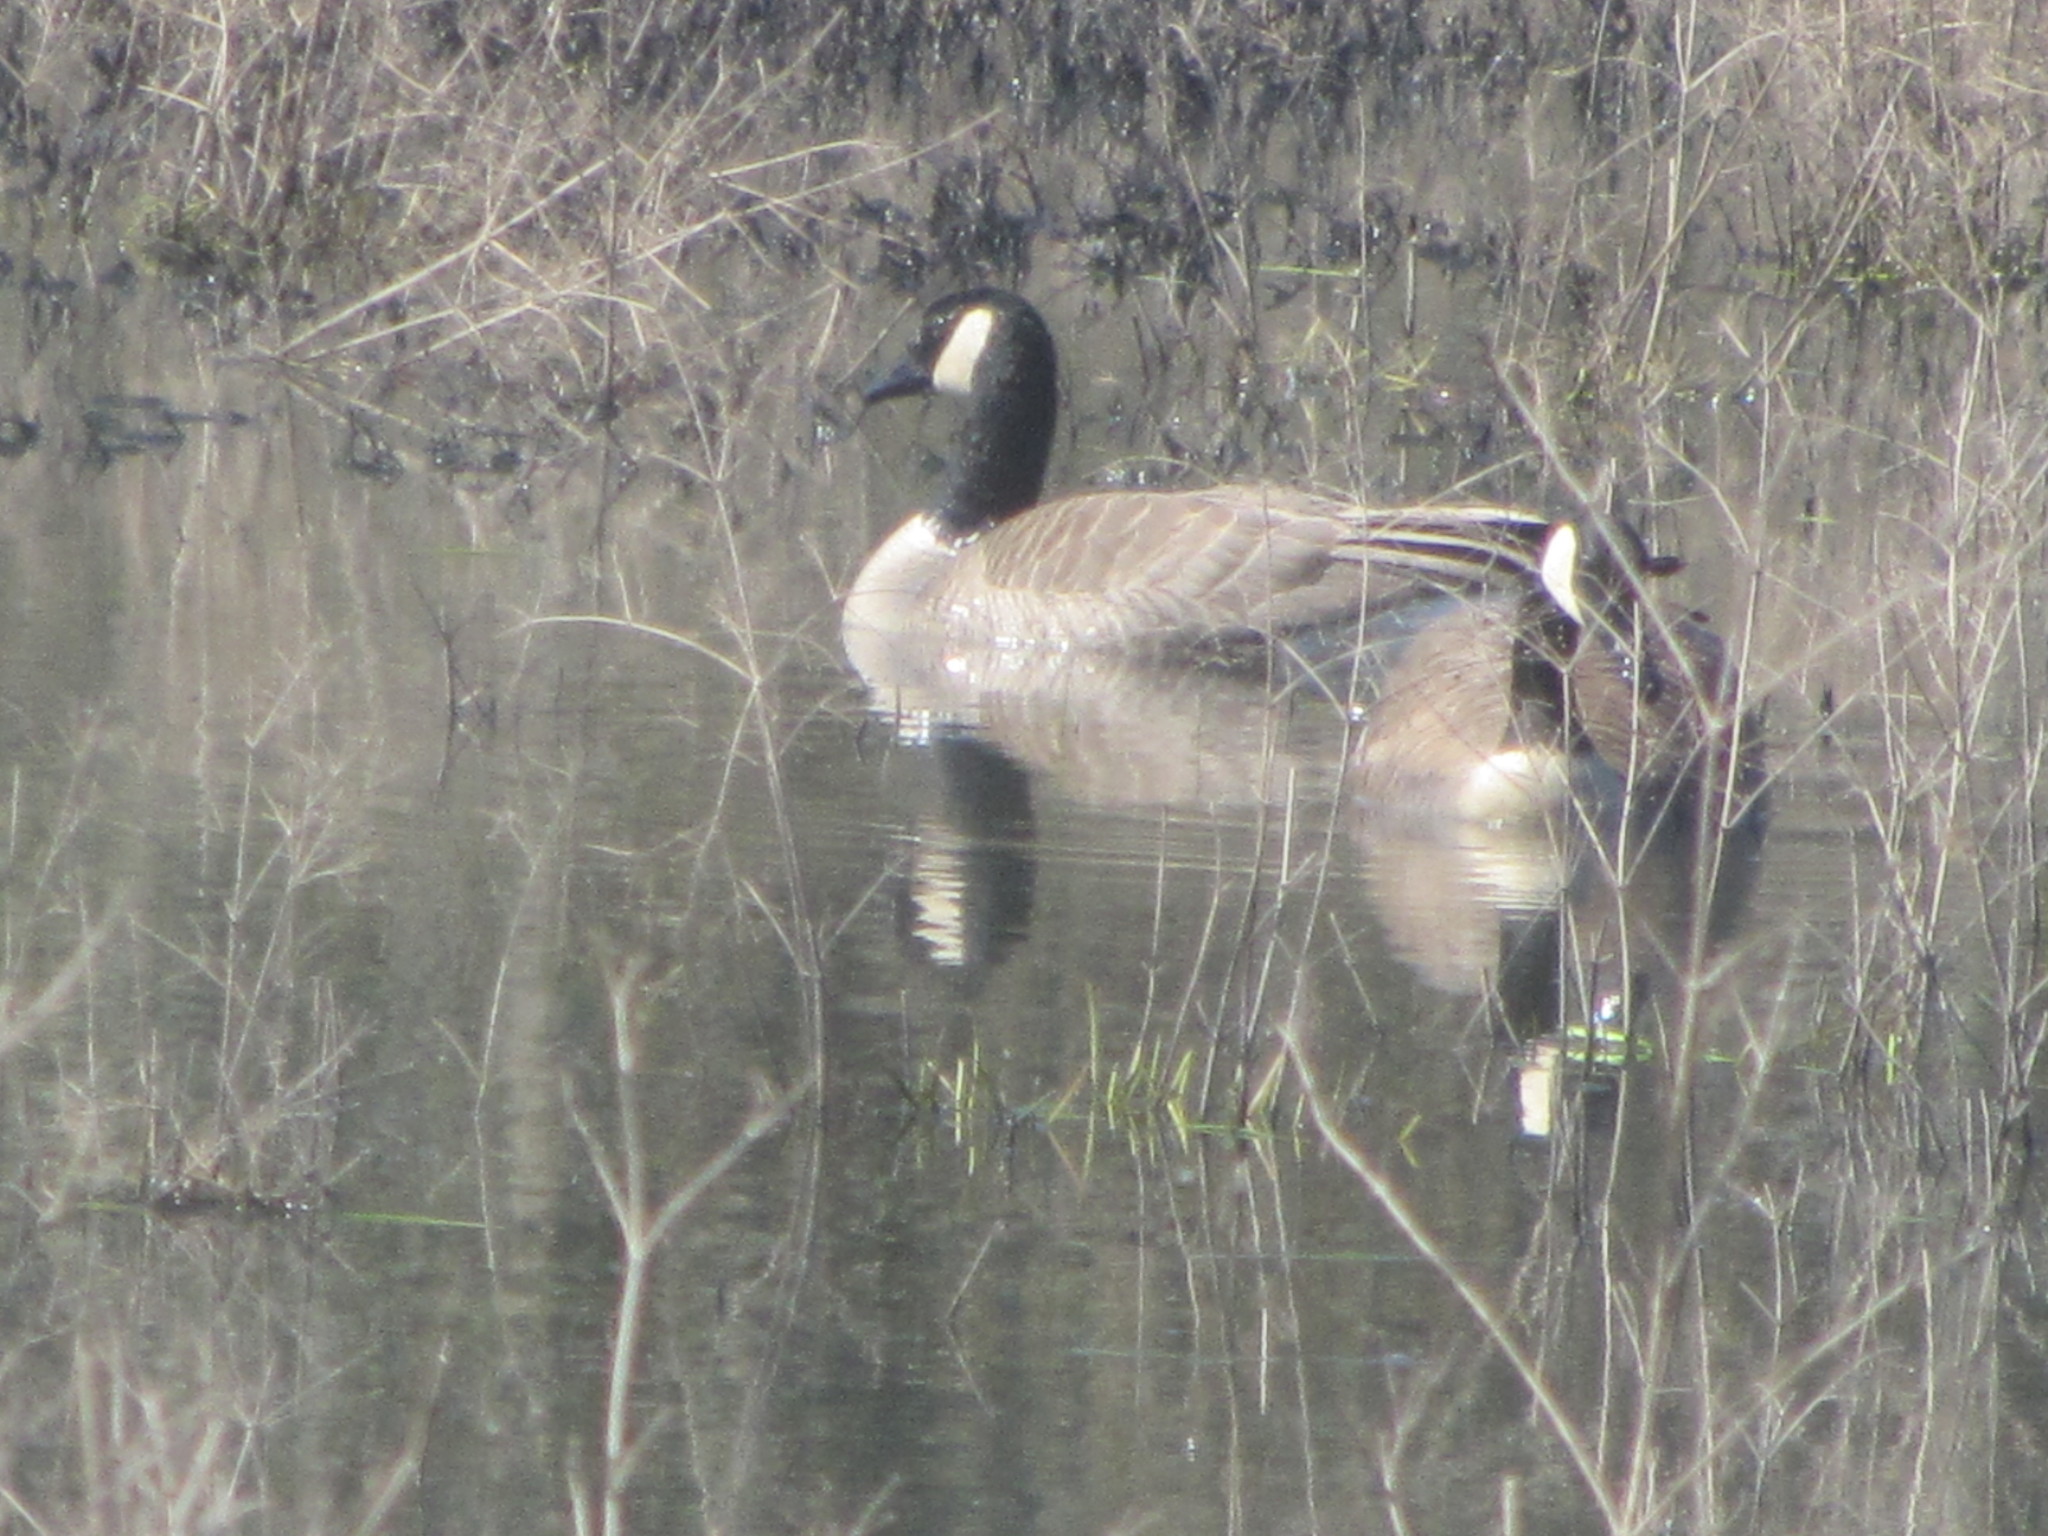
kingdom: Animalia
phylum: Chordata
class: Aves
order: Anseriformes
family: Anatidae
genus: Branta
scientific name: Branta canadensis
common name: Canada goose
